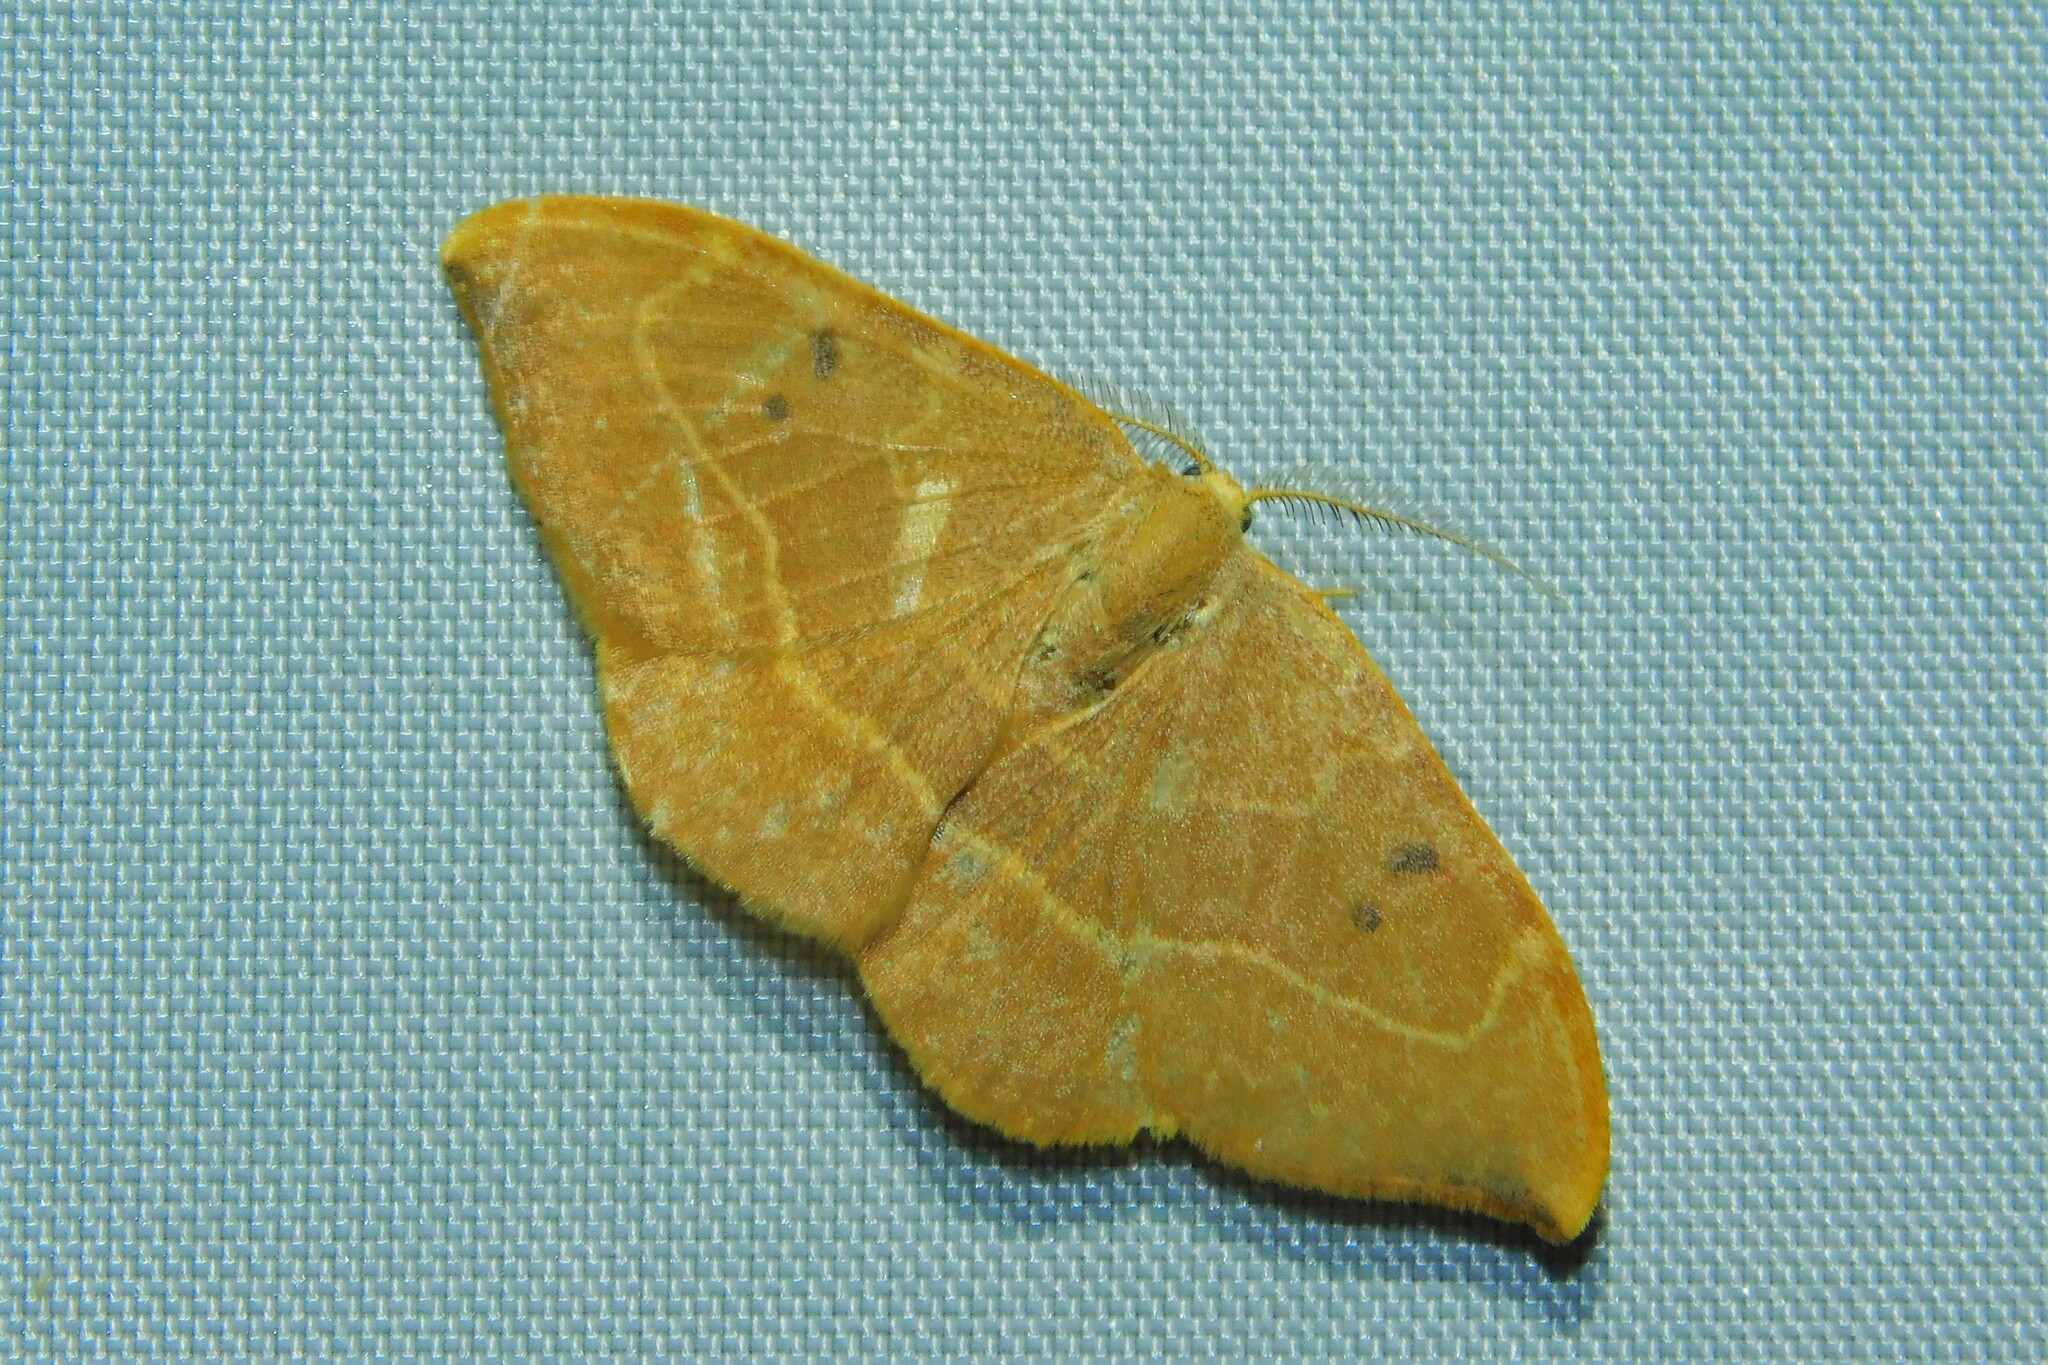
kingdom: Animalia
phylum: Arthropoda
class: Insecta
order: Lepidoptera
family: Drepanidae
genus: Watsonalla
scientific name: Watsonalla binaria
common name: Oak hook-tip
